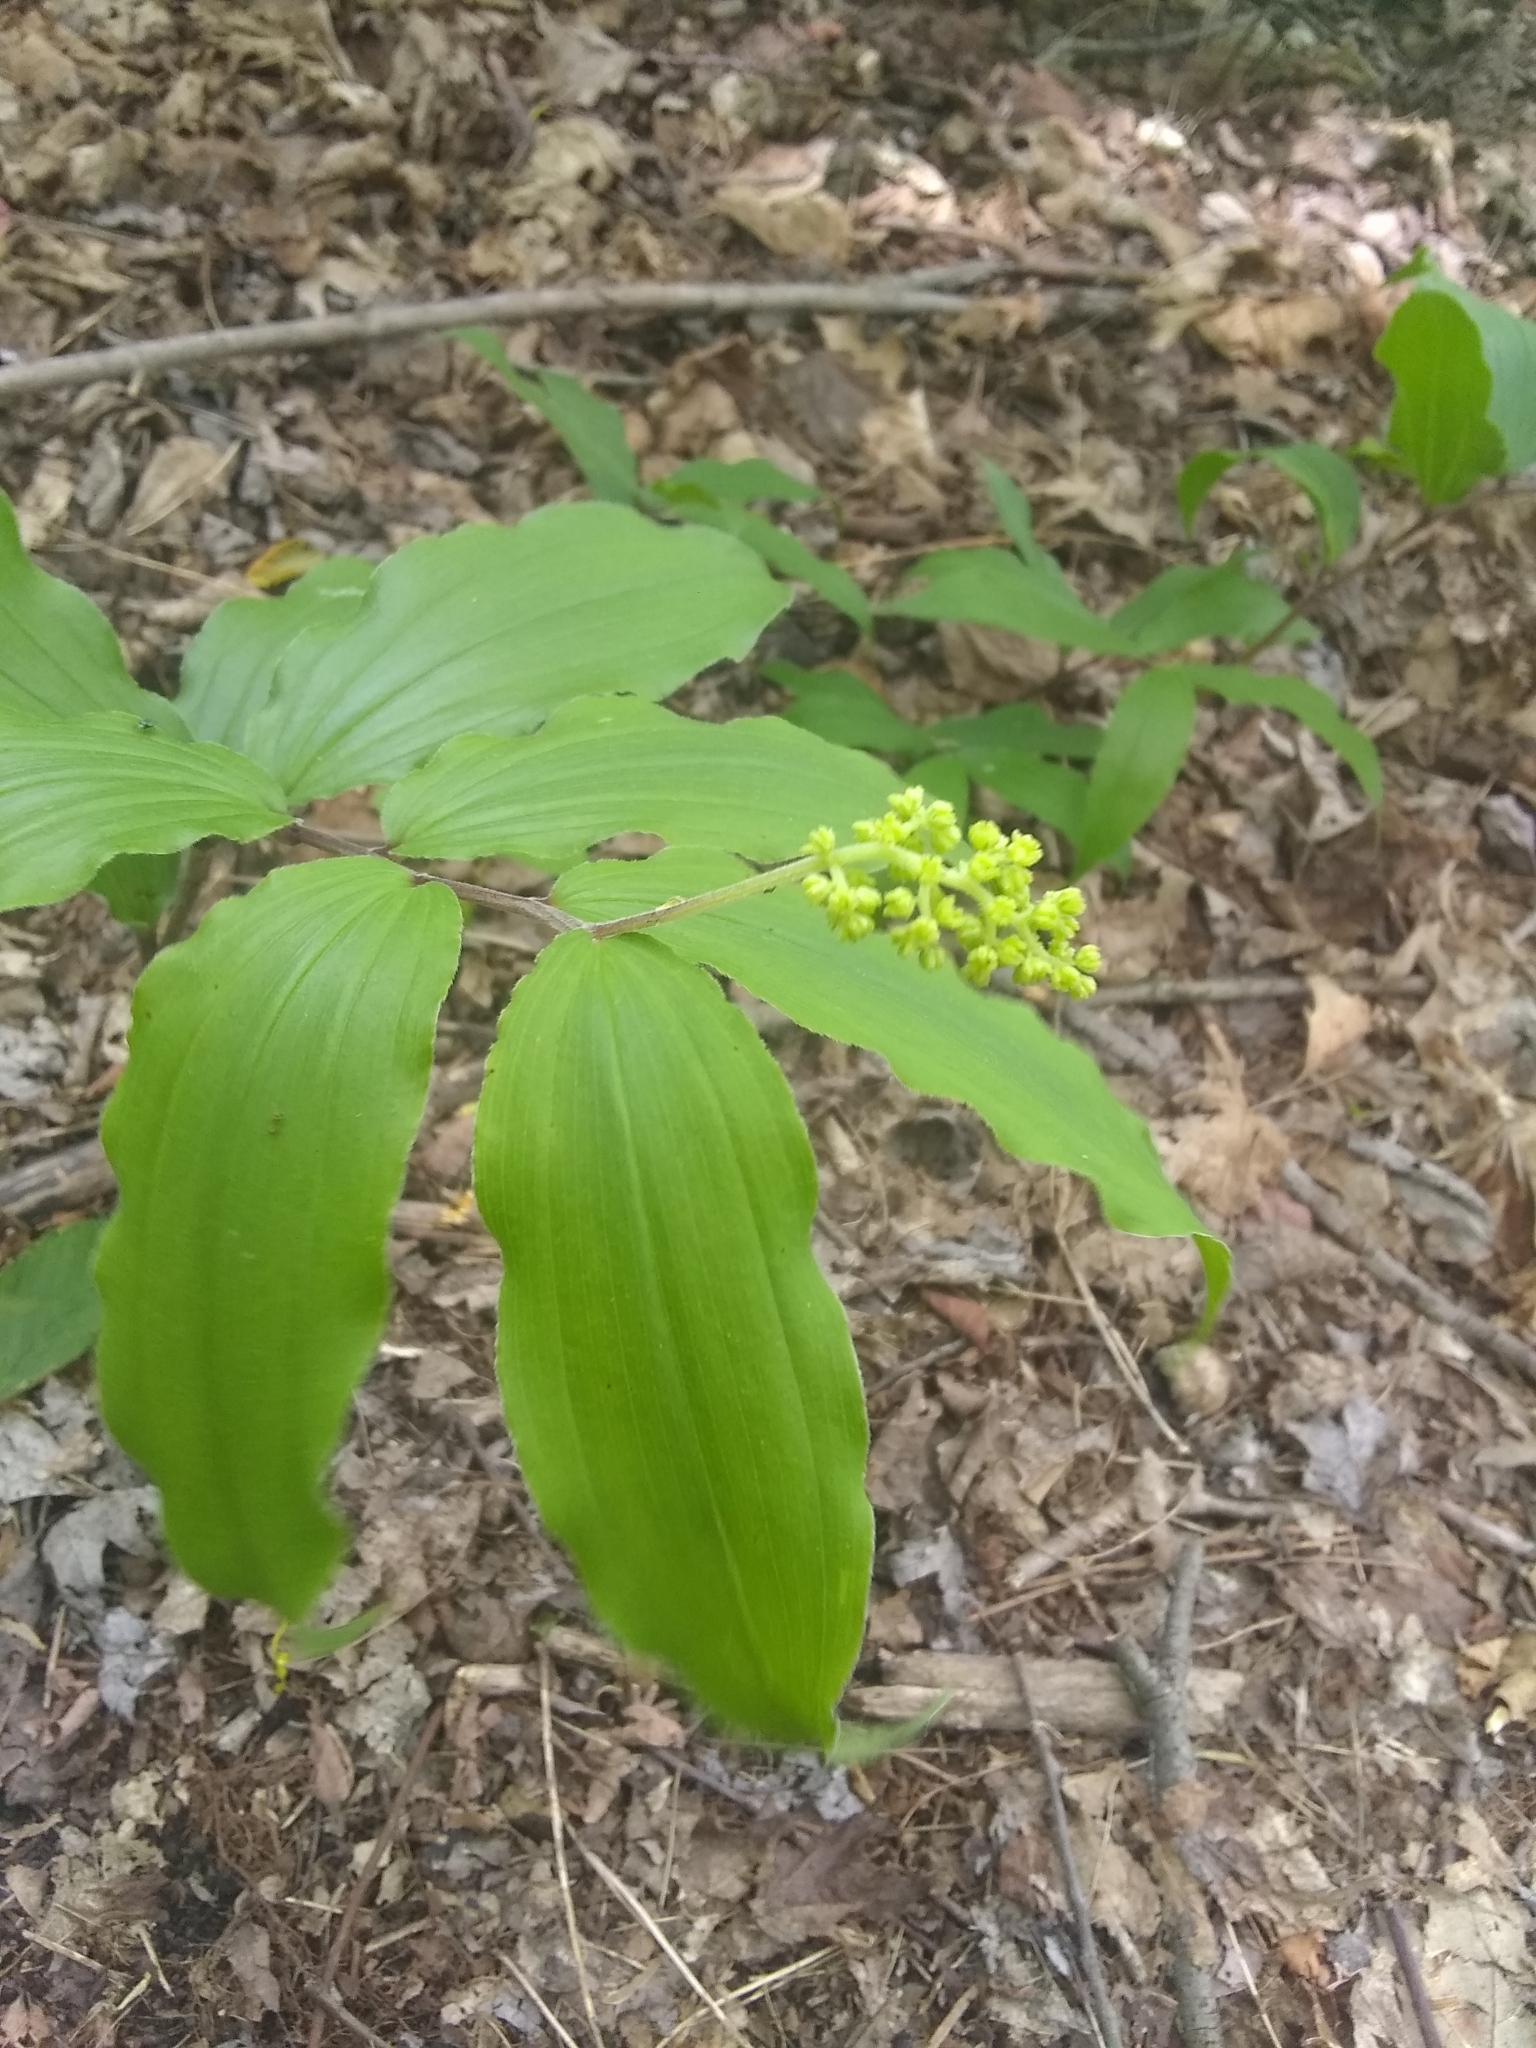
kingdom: Plantae
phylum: Tracheophyta
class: Liliopsida
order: Asparagales
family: Asparagaceae
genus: Maianthemum
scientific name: Maianthemum racemosum
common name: False spikenard
